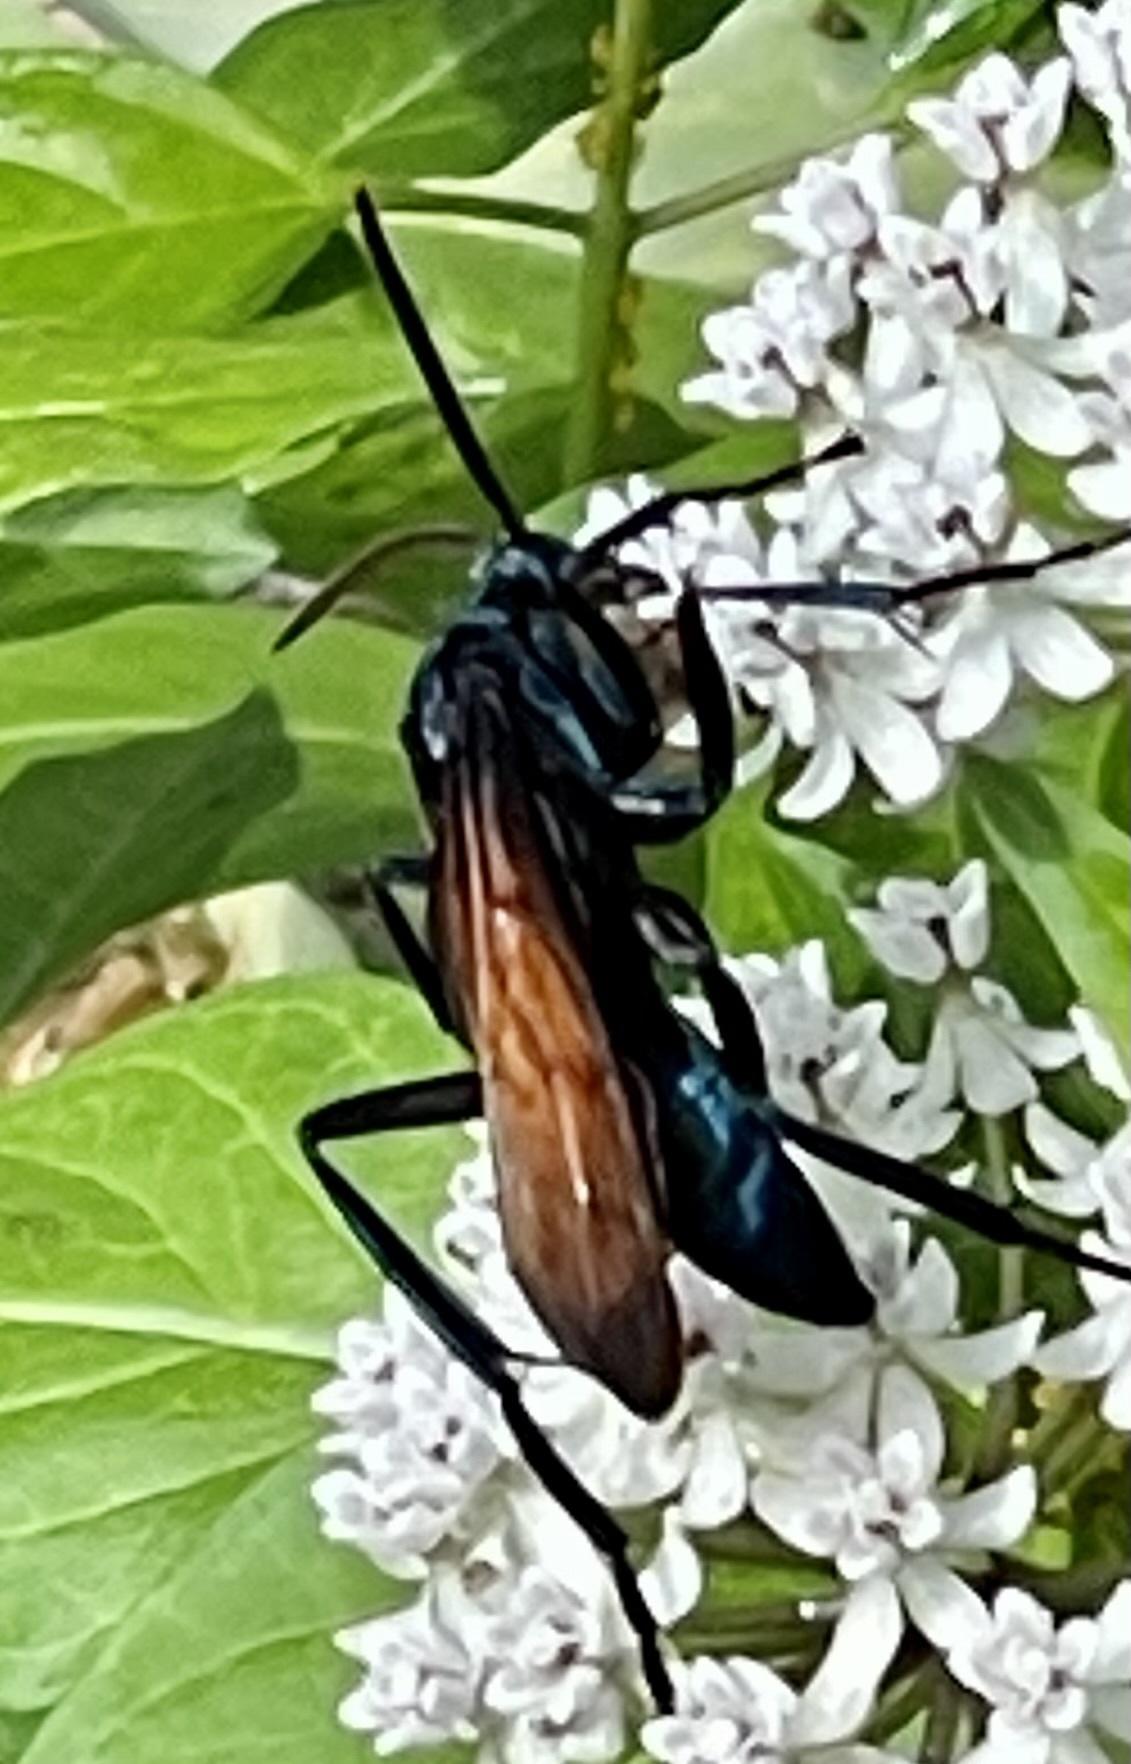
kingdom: Animalia
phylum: Arthropoda
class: Insecta
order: Hymenoptera
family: Pompilidae
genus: Pepsis
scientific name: Pepsis mildei
